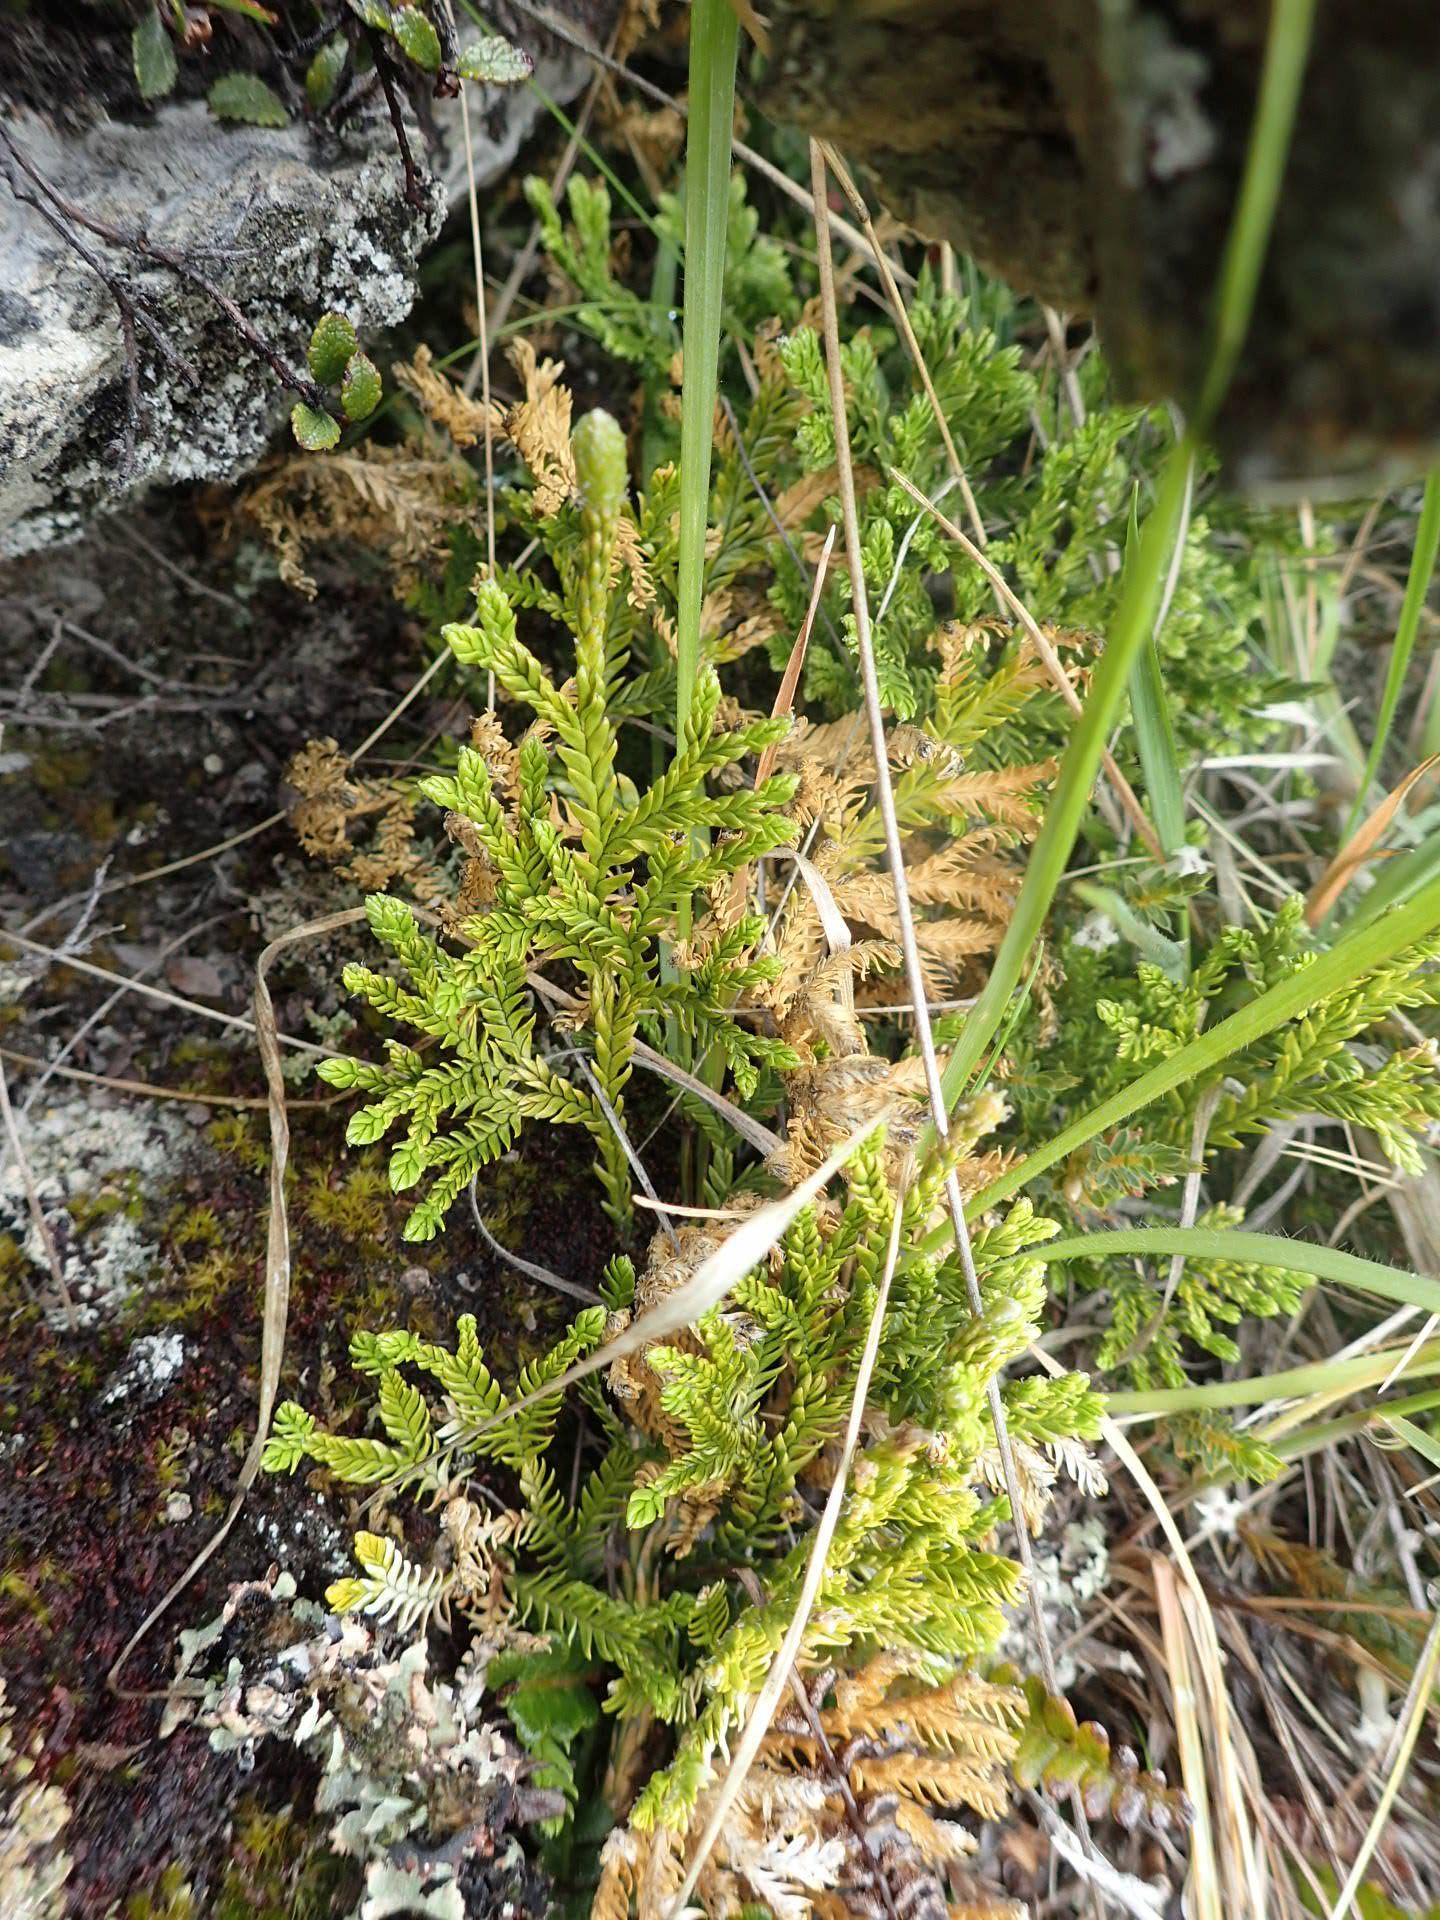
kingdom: Plantae
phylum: Tracheophyta
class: Lycopodiopsida
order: Lycopodiales
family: Lycopodiaceae
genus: Diphasium
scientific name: Diphasium scariosum
